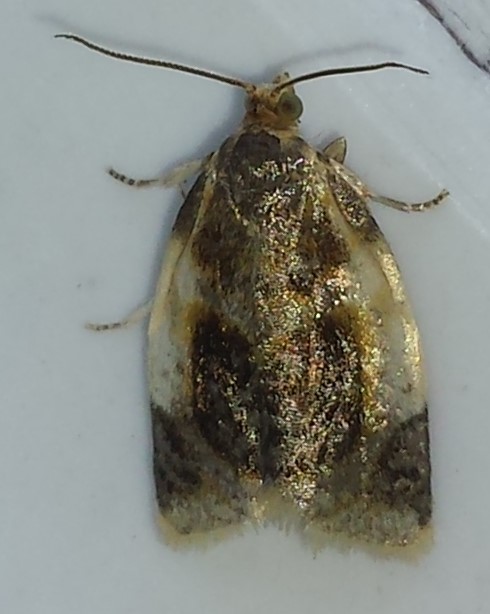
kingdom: Animalia
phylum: Arthropoda
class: Insecta
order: Lepidoptera
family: Tortricidae
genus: Clepsis
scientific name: Clepsis melaleucanus
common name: American apple tortrix
